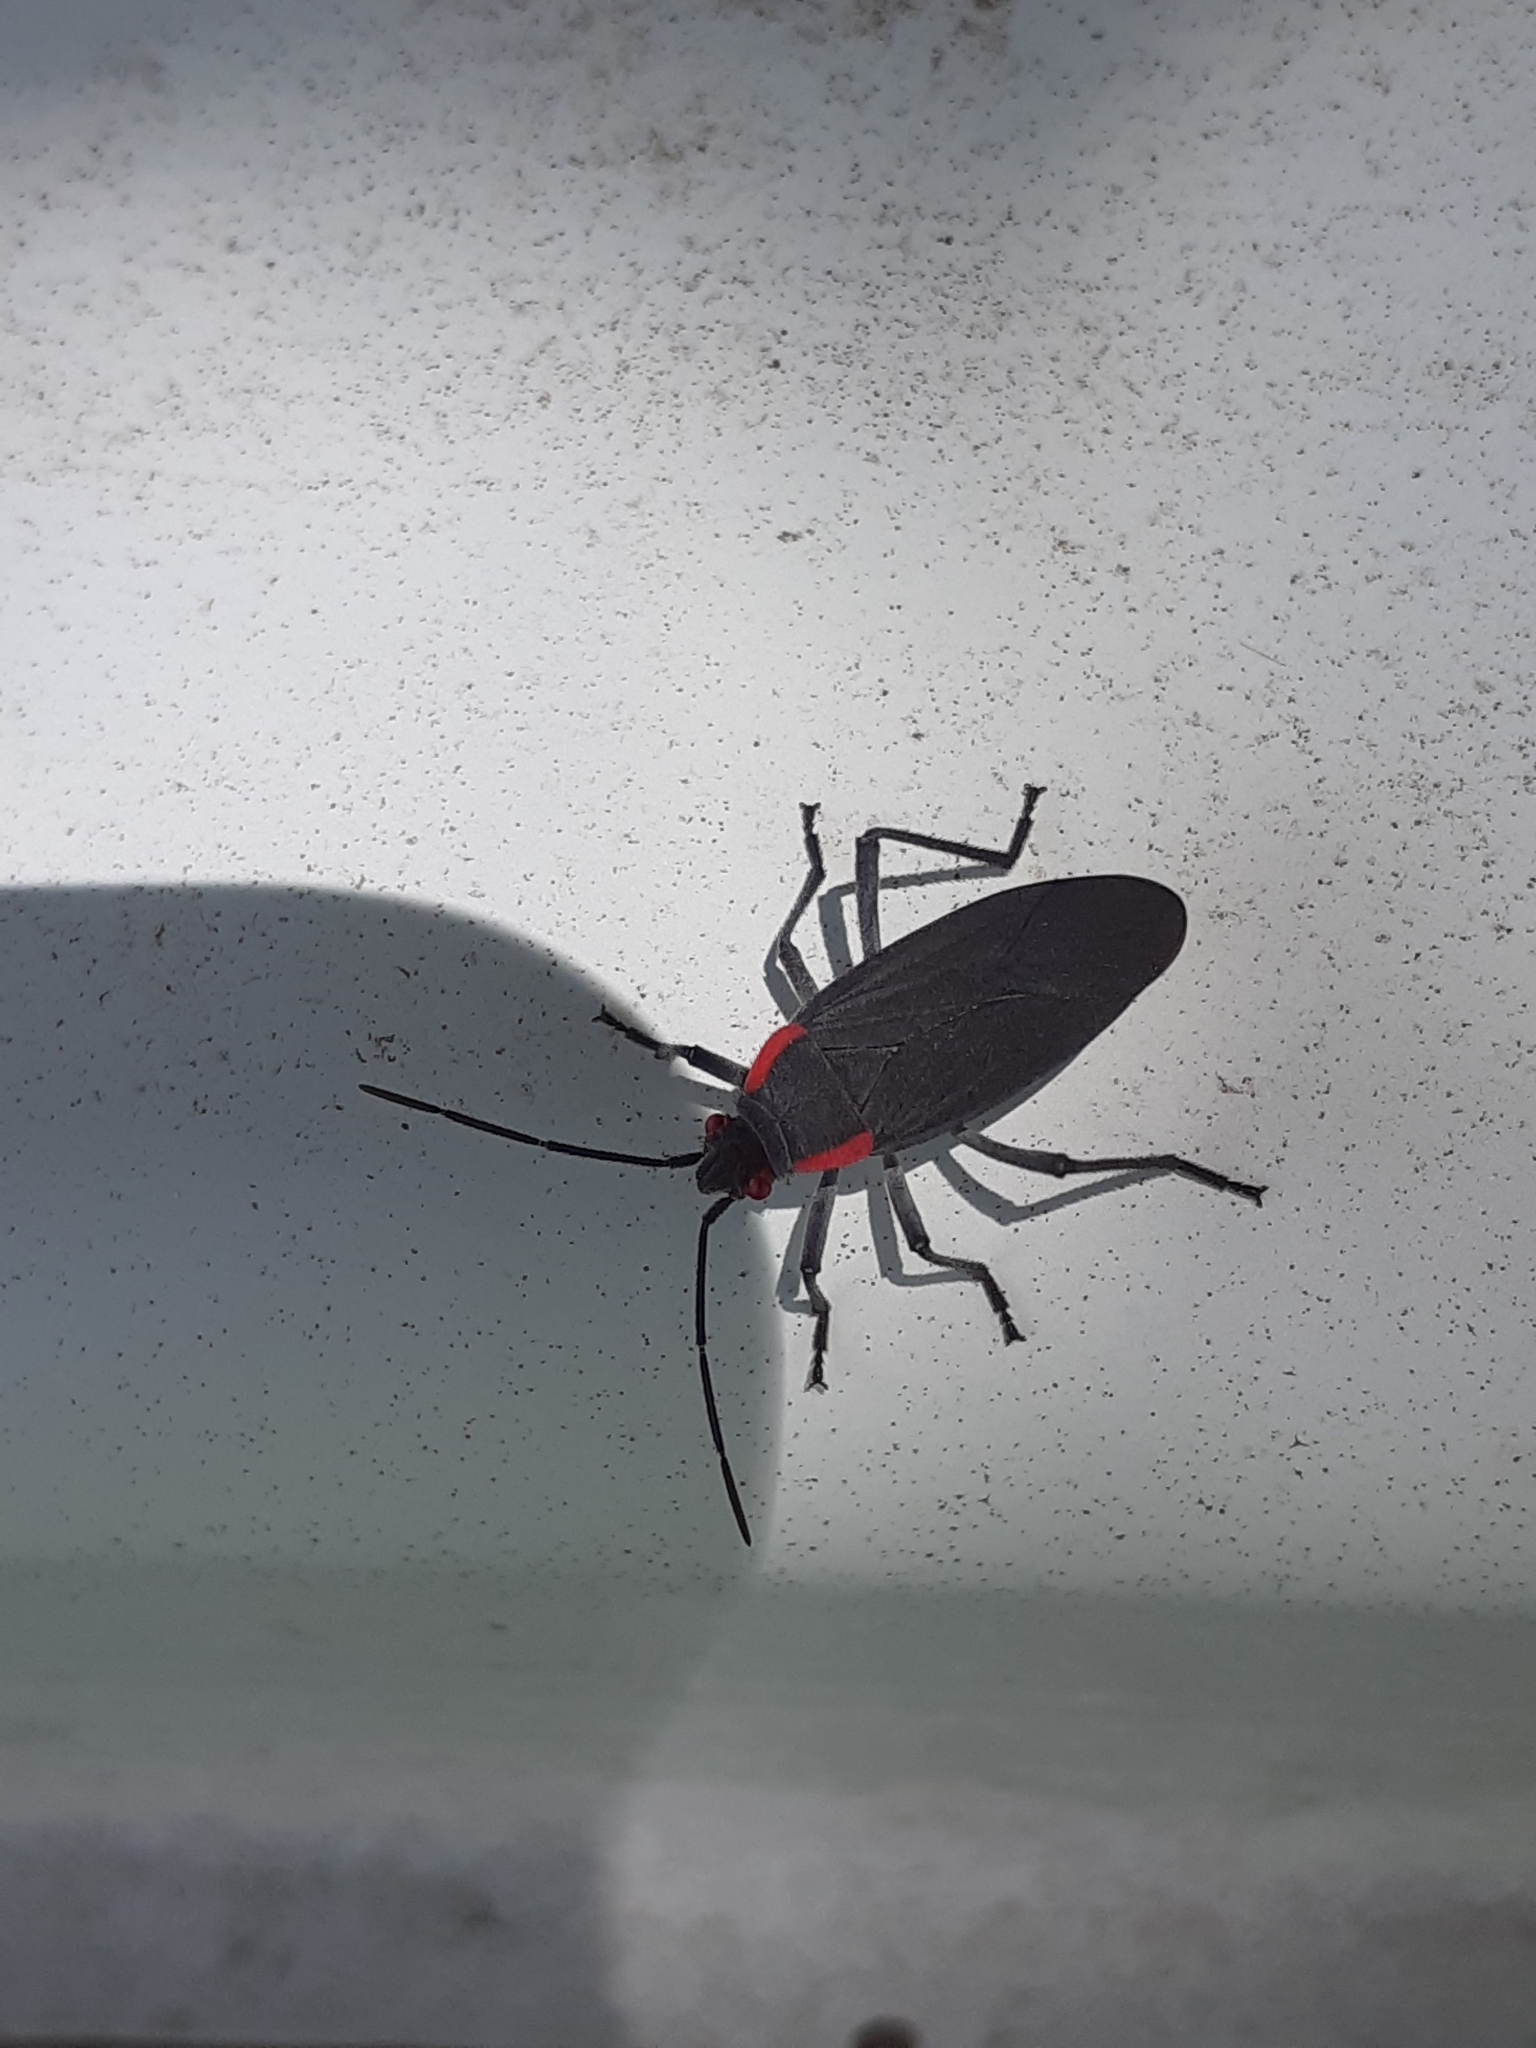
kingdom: Animalia
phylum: Arthropoda
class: Insecta
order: Hemiptera
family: Rhopalidae
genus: Jadera
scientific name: Jadera haematoloma
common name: Red-shouldered bug
